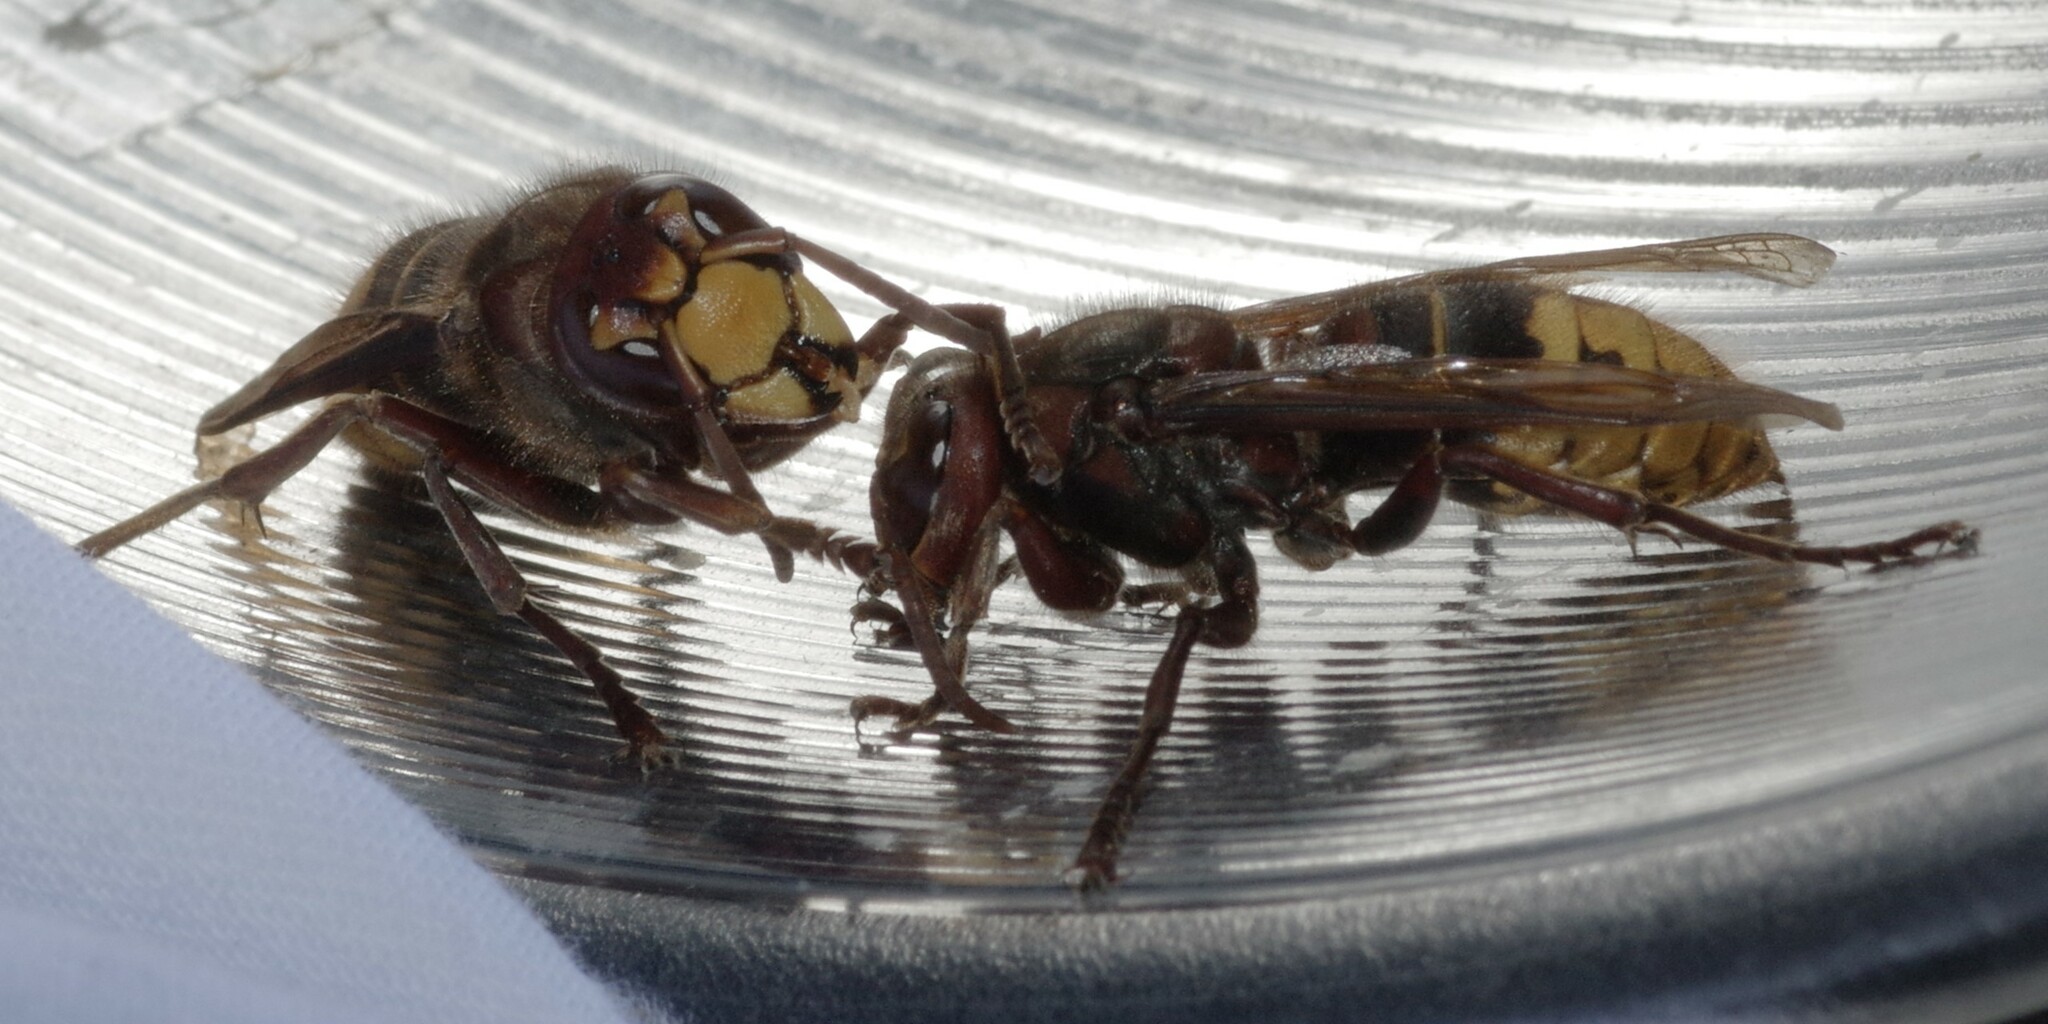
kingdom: Animalia
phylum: Arthropoda
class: Insecta
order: Hymenoptera
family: Vespidae
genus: Vespa
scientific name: Vespa crabro
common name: Hornet
